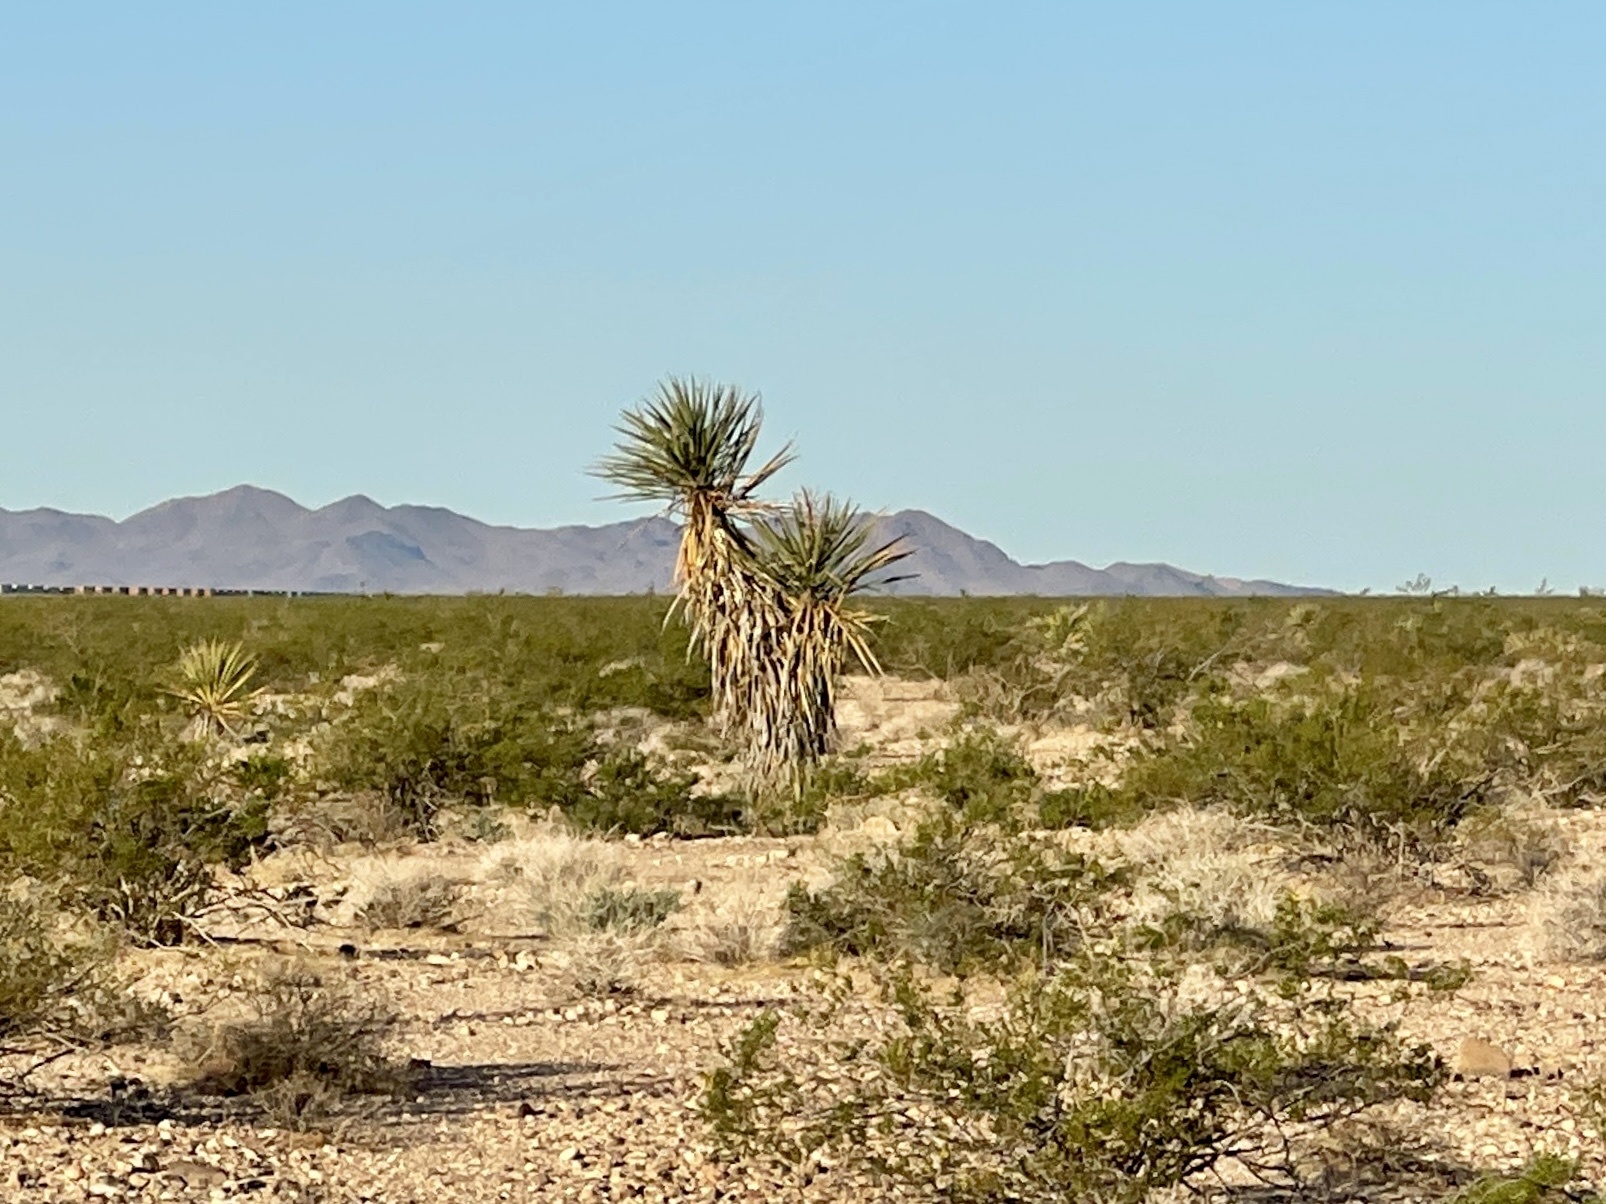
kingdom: Plantae
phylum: Tracheophyta
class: Liliopsida
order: Asparagales
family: Asparagaceae
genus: Yucca
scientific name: Yucca schidigera
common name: Mojave yucca
